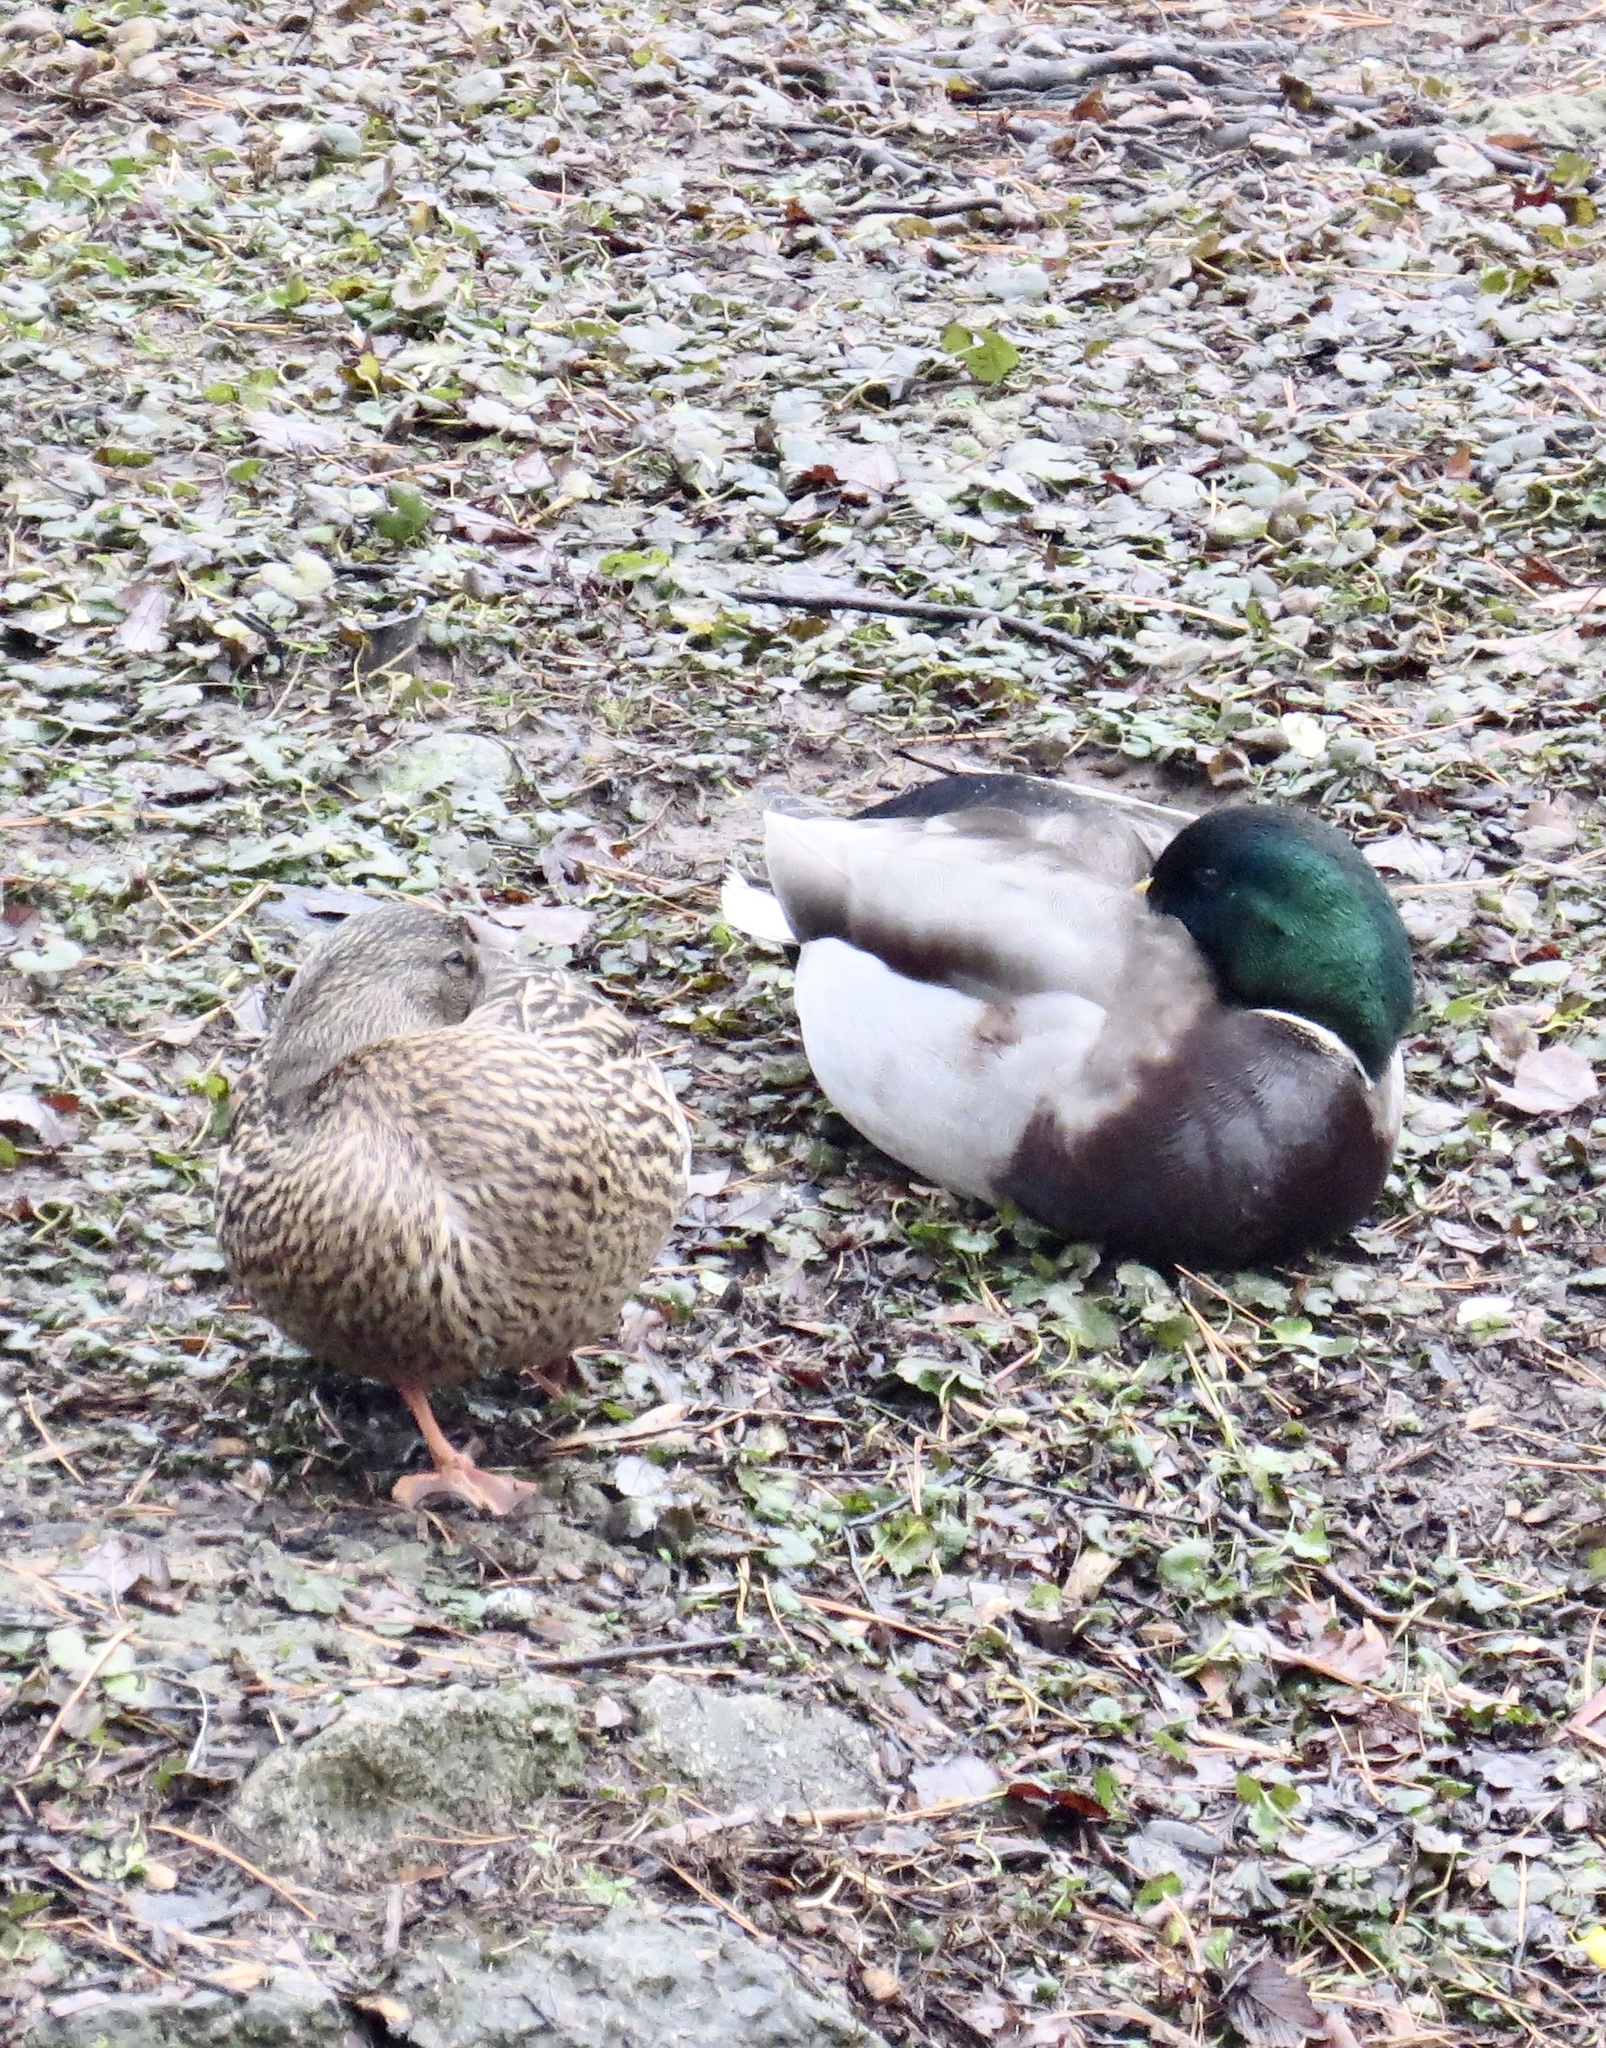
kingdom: Animalia
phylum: Chordata
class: Aves
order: Anseriformes
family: Anatidae
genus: Anas
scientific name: Anas platyrhynchos
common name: Mallard
